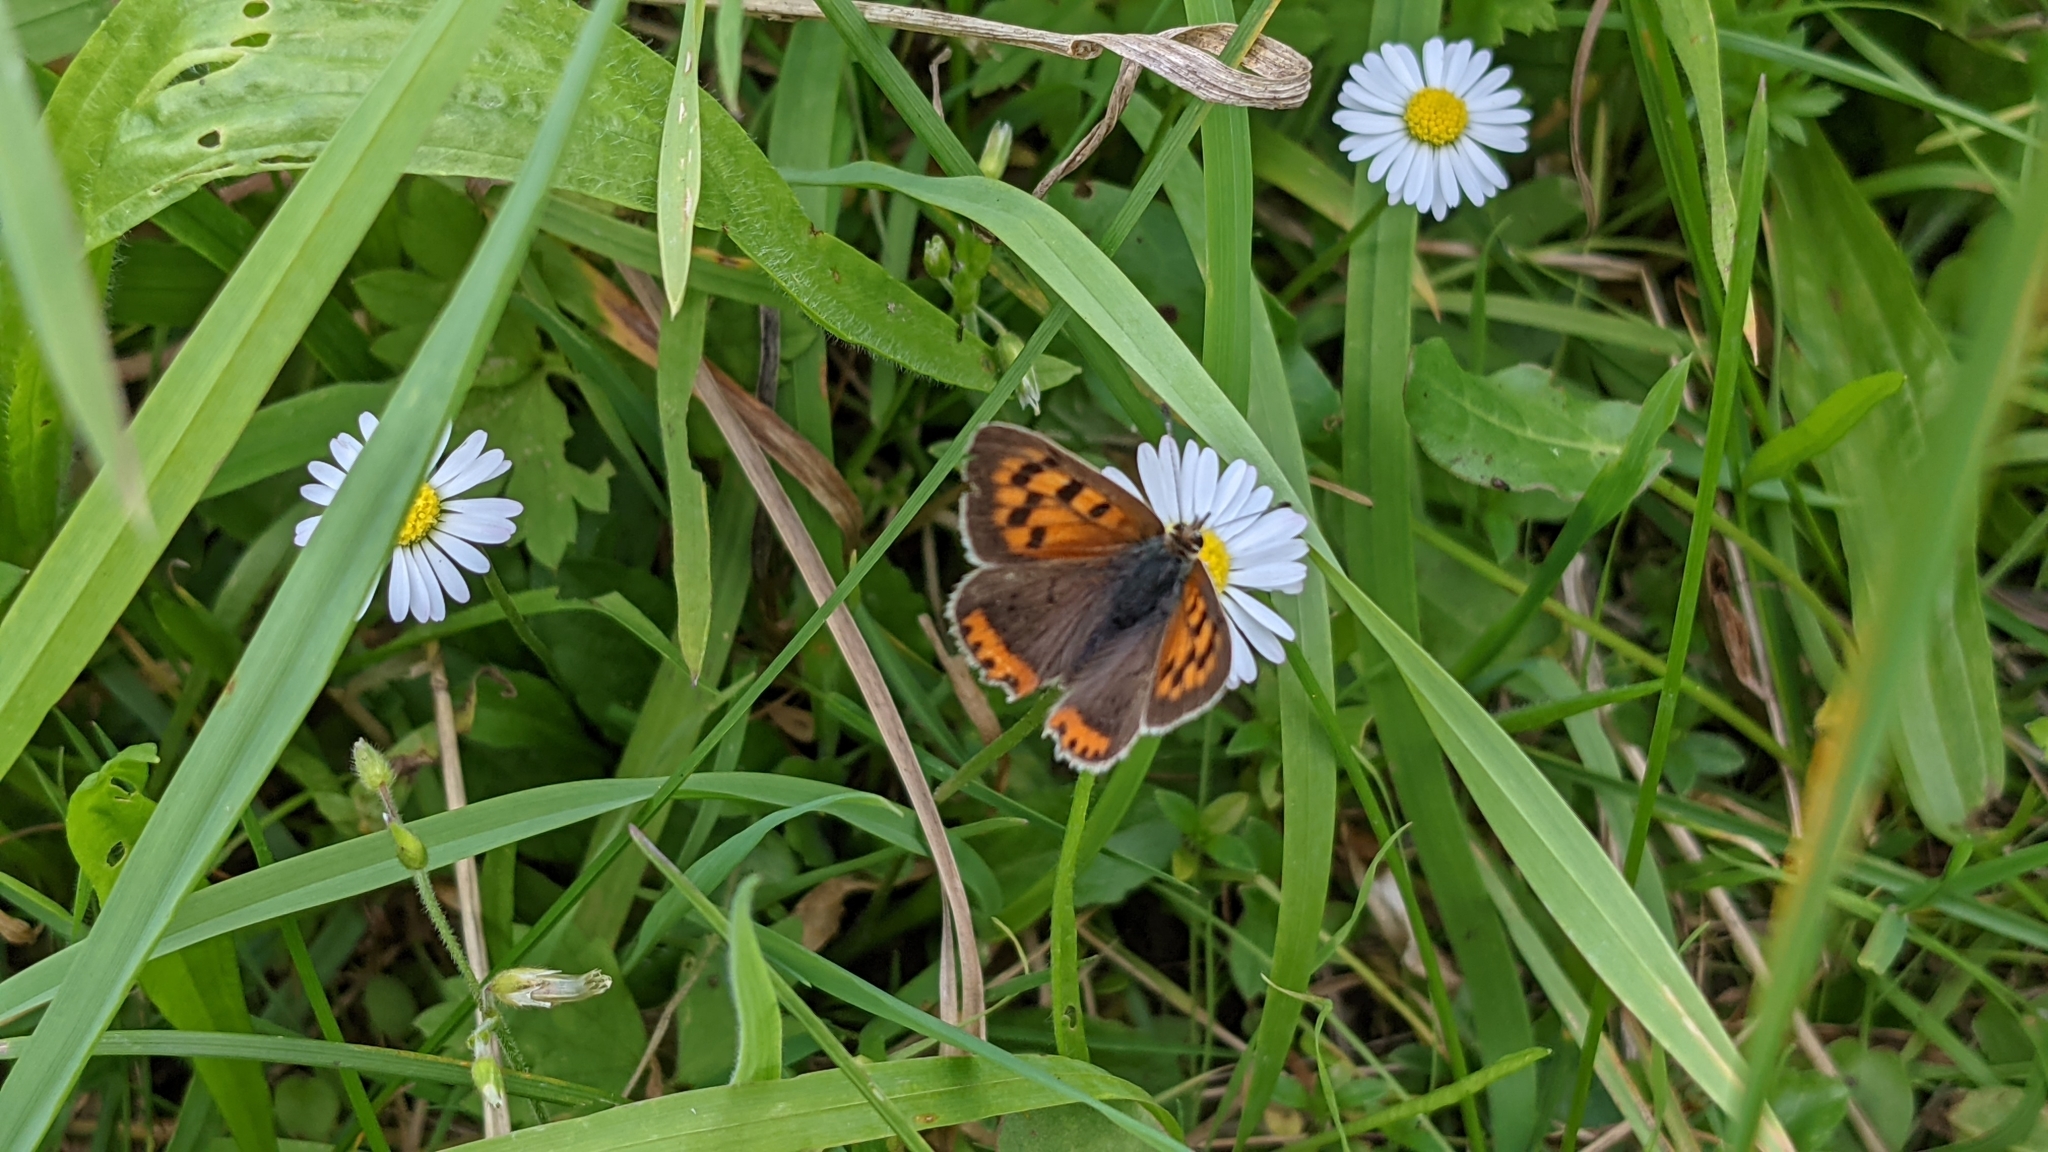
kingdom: Animalia
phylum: Arthropoda
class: Insecta
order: Lepidoptera
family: Lycaenidae
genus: Lycaena
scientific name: Lycaena phlaeas
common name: Small copper
